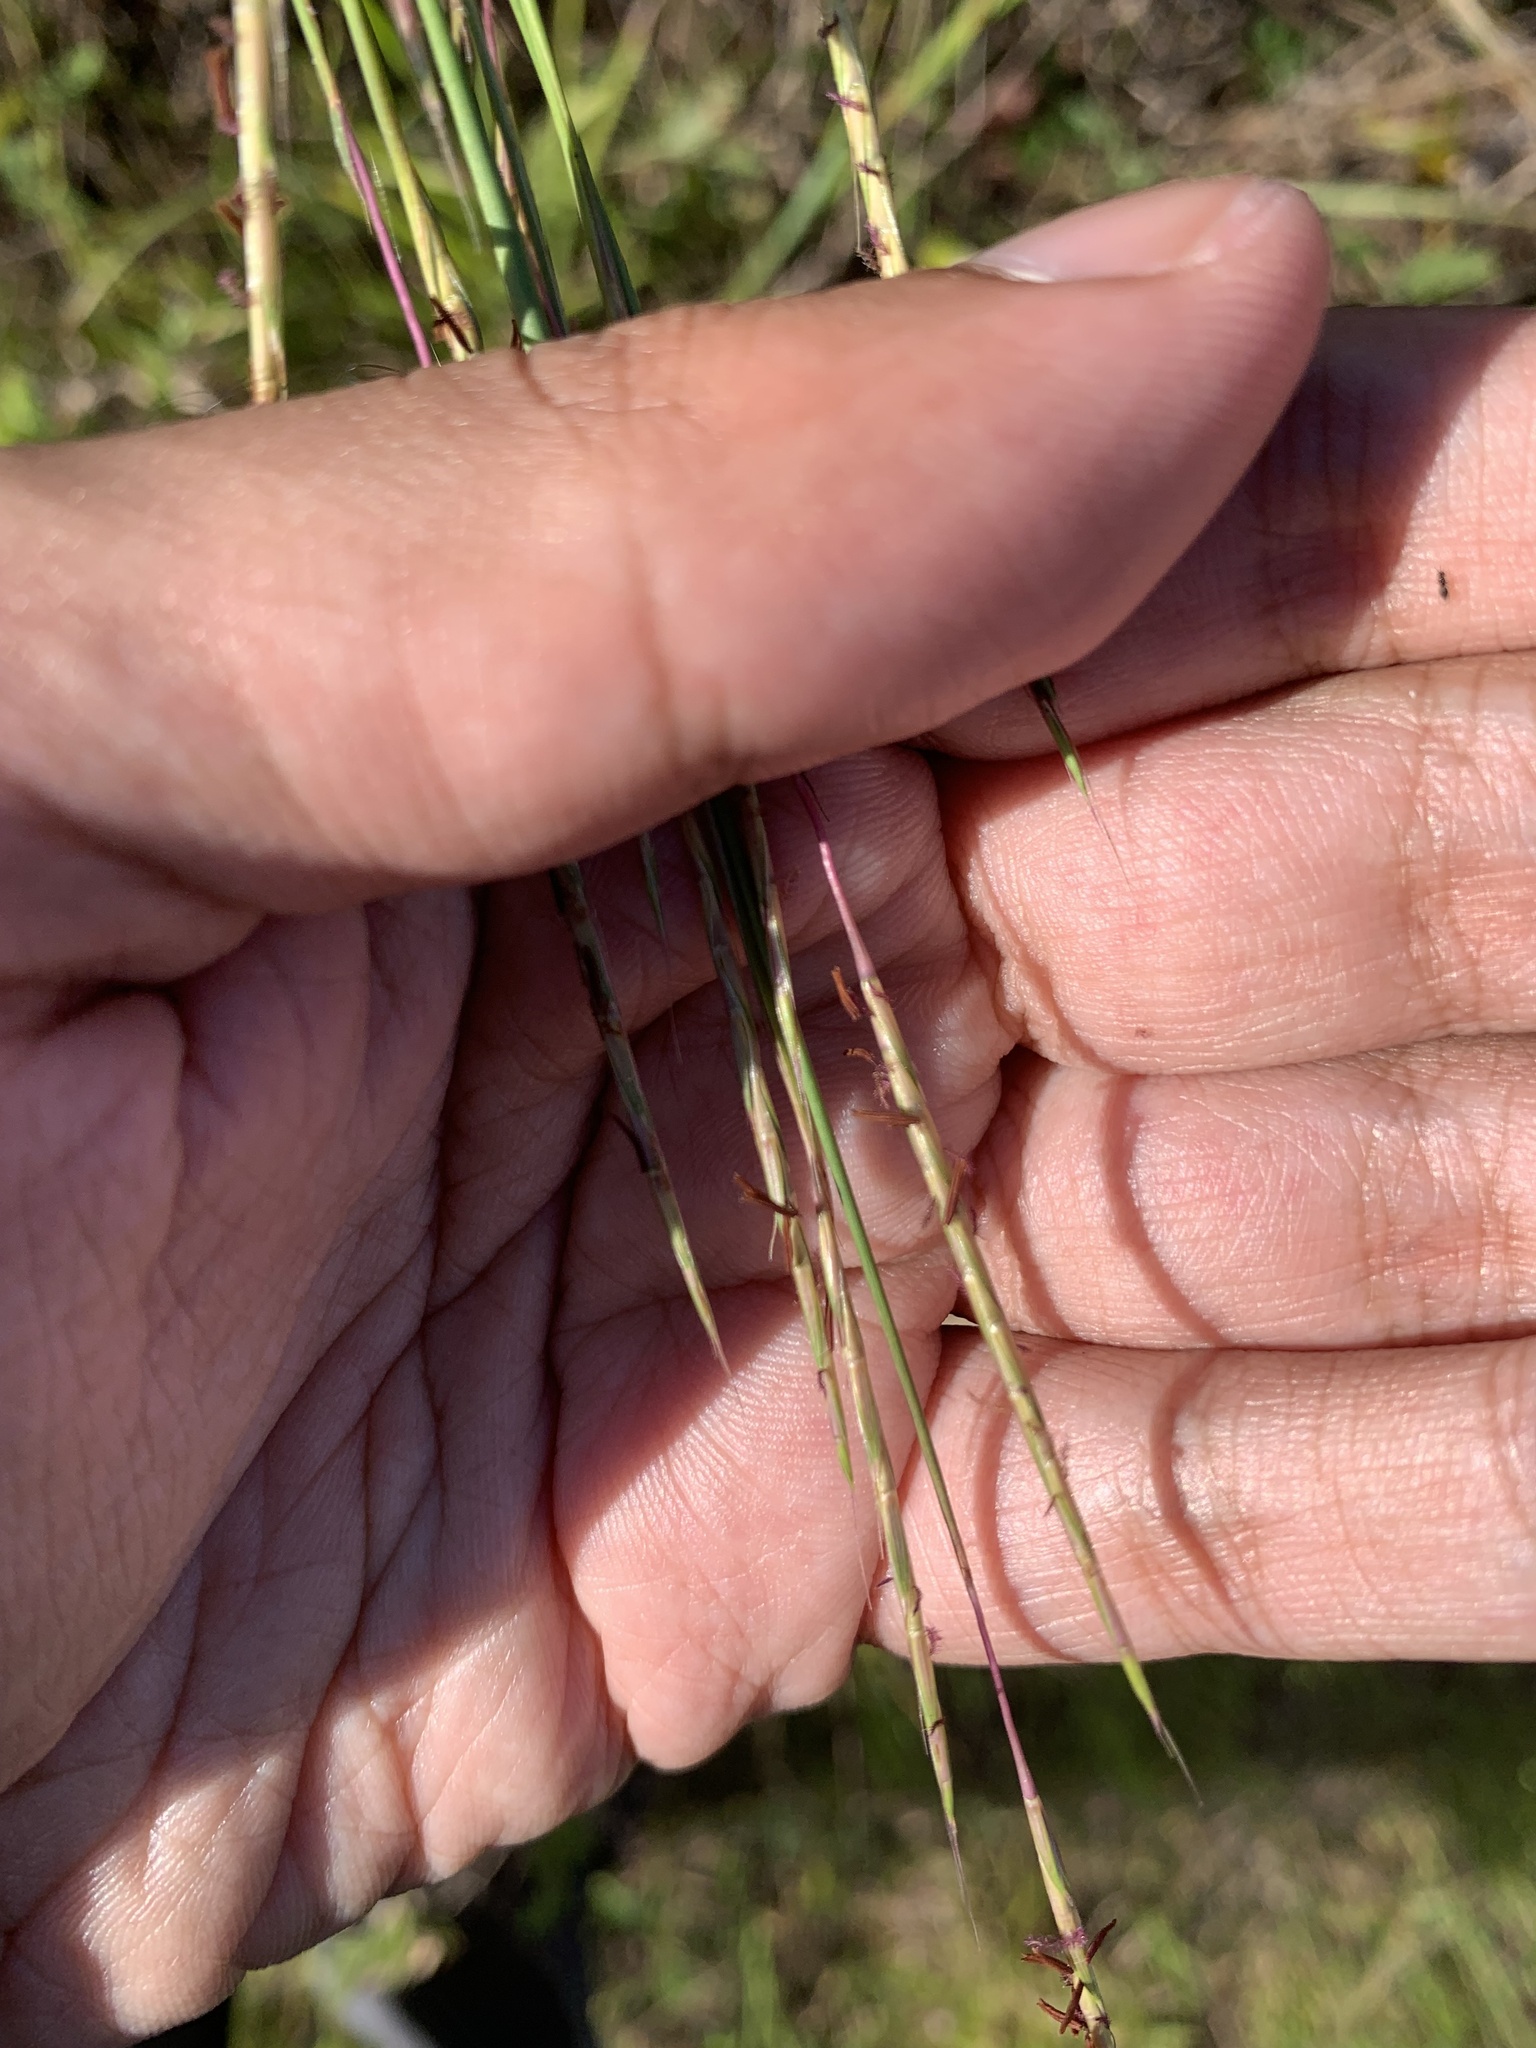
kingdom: Plantae
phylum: Tracheophyta
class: Liliopsida
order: Poales
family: Poaceae
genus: Schizachyrium
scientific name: Schizachyrium scoparium
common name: Little bluestem
